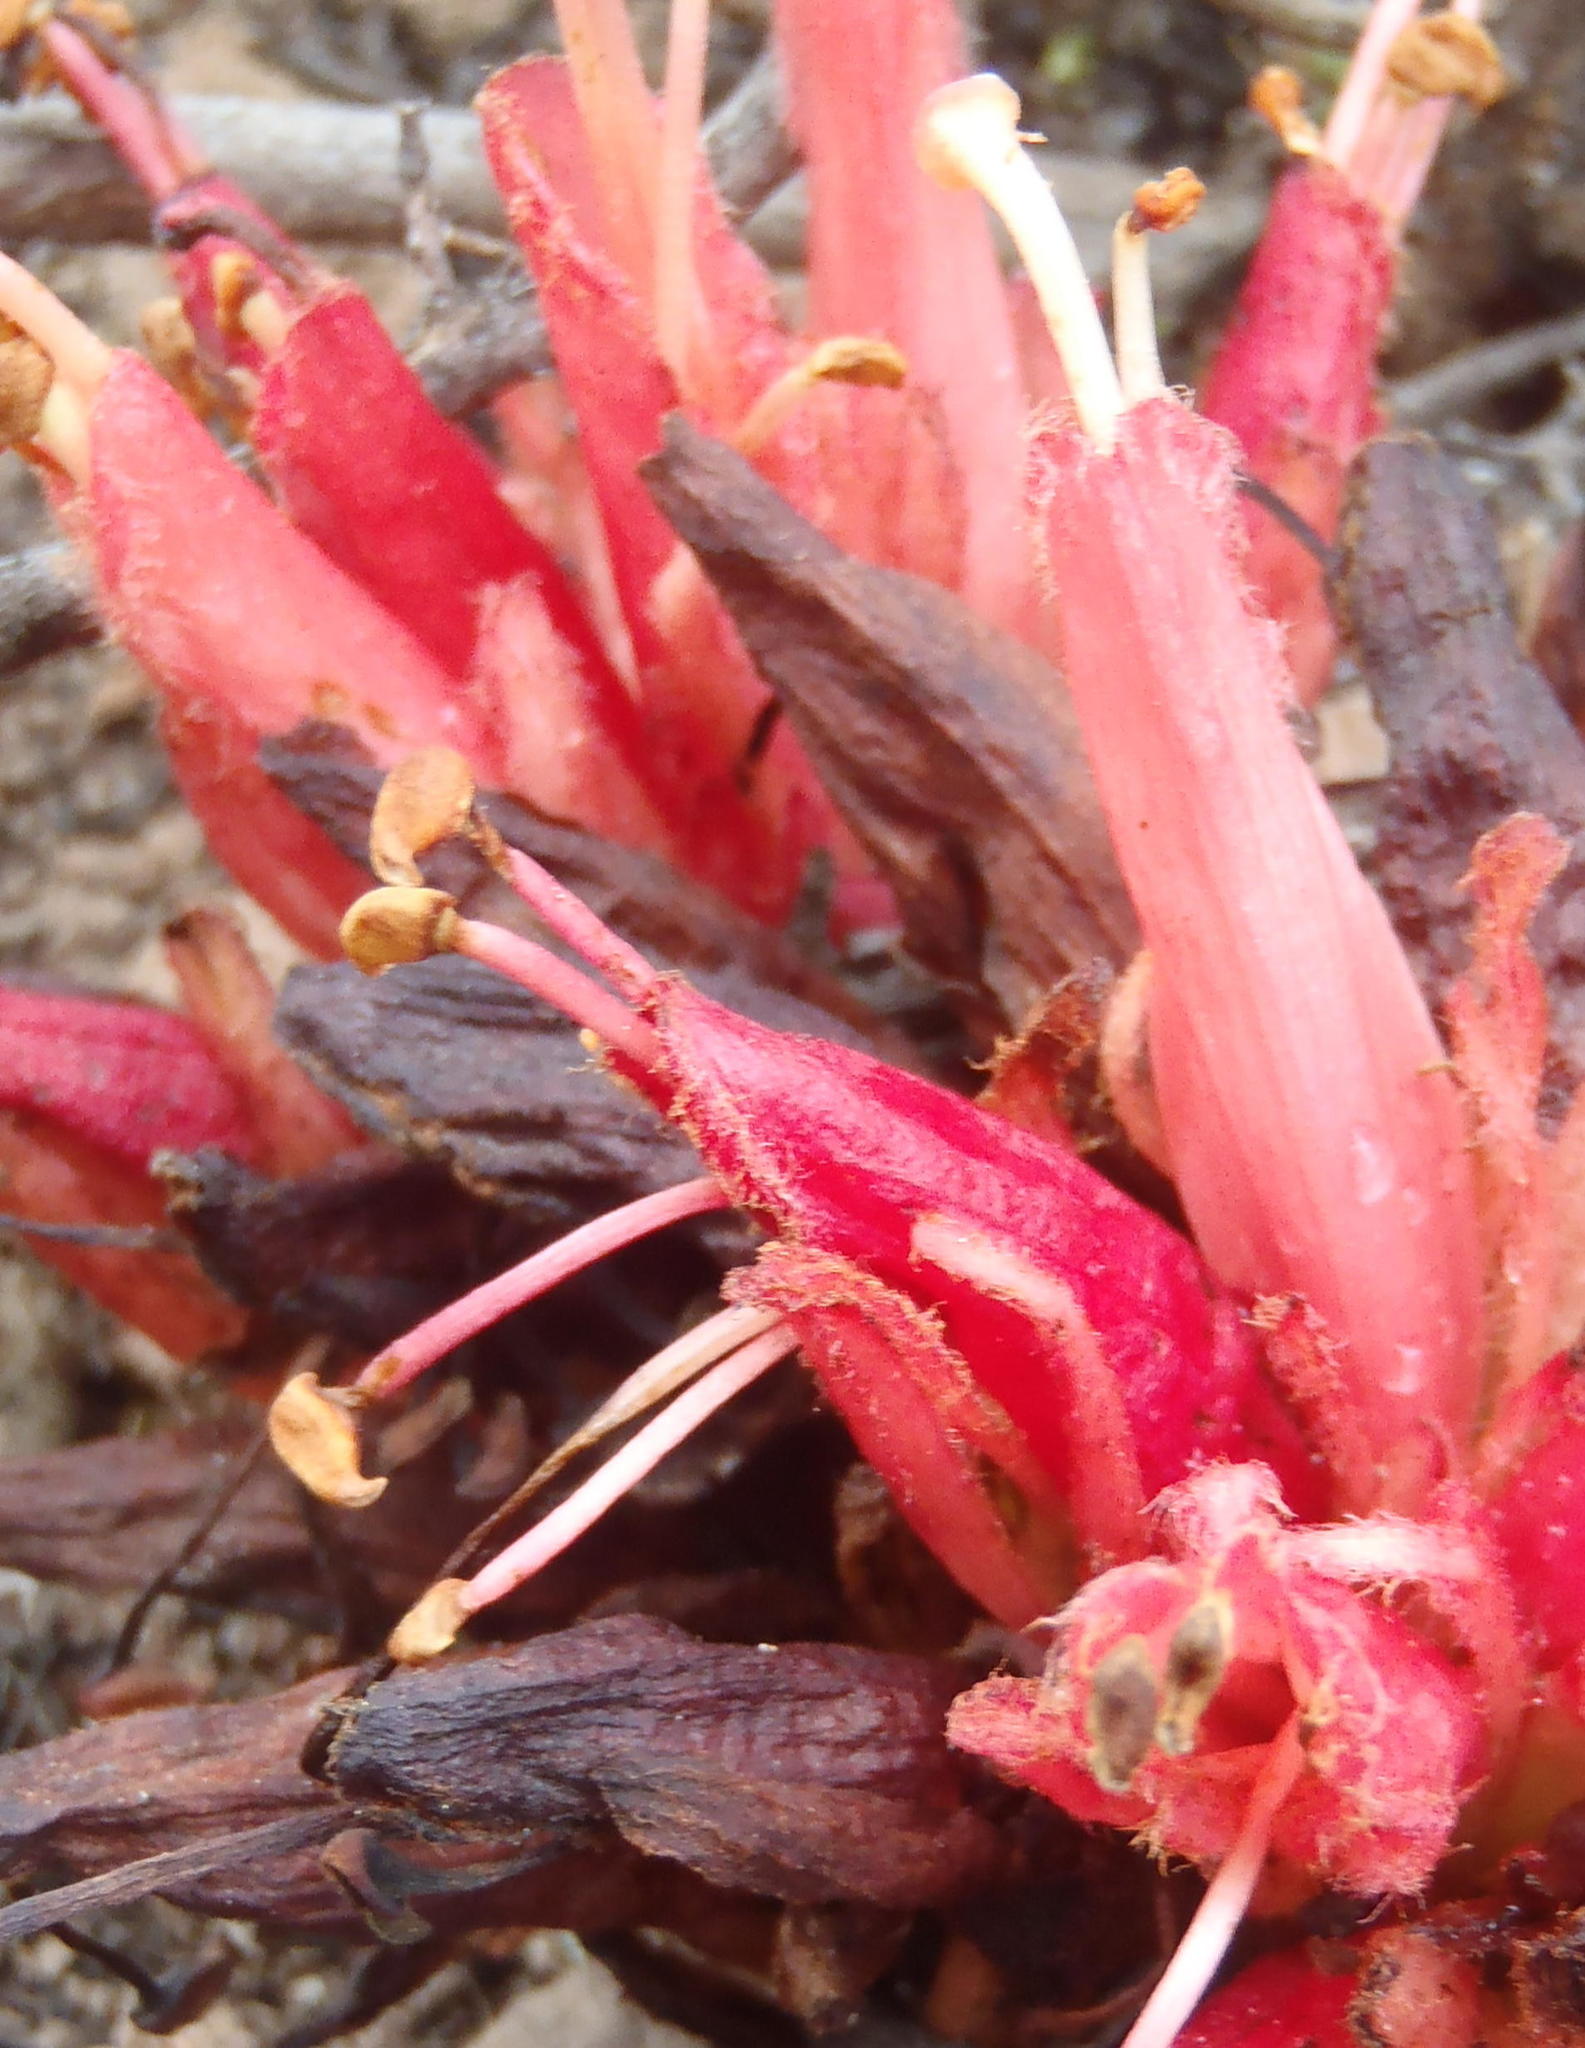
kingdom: Plantae
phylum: Tracheophyta
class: Magnoliopsida
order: Lamiales
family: Orobanchaceae
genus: Hyobanche
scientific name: Hyobanche glabrata
